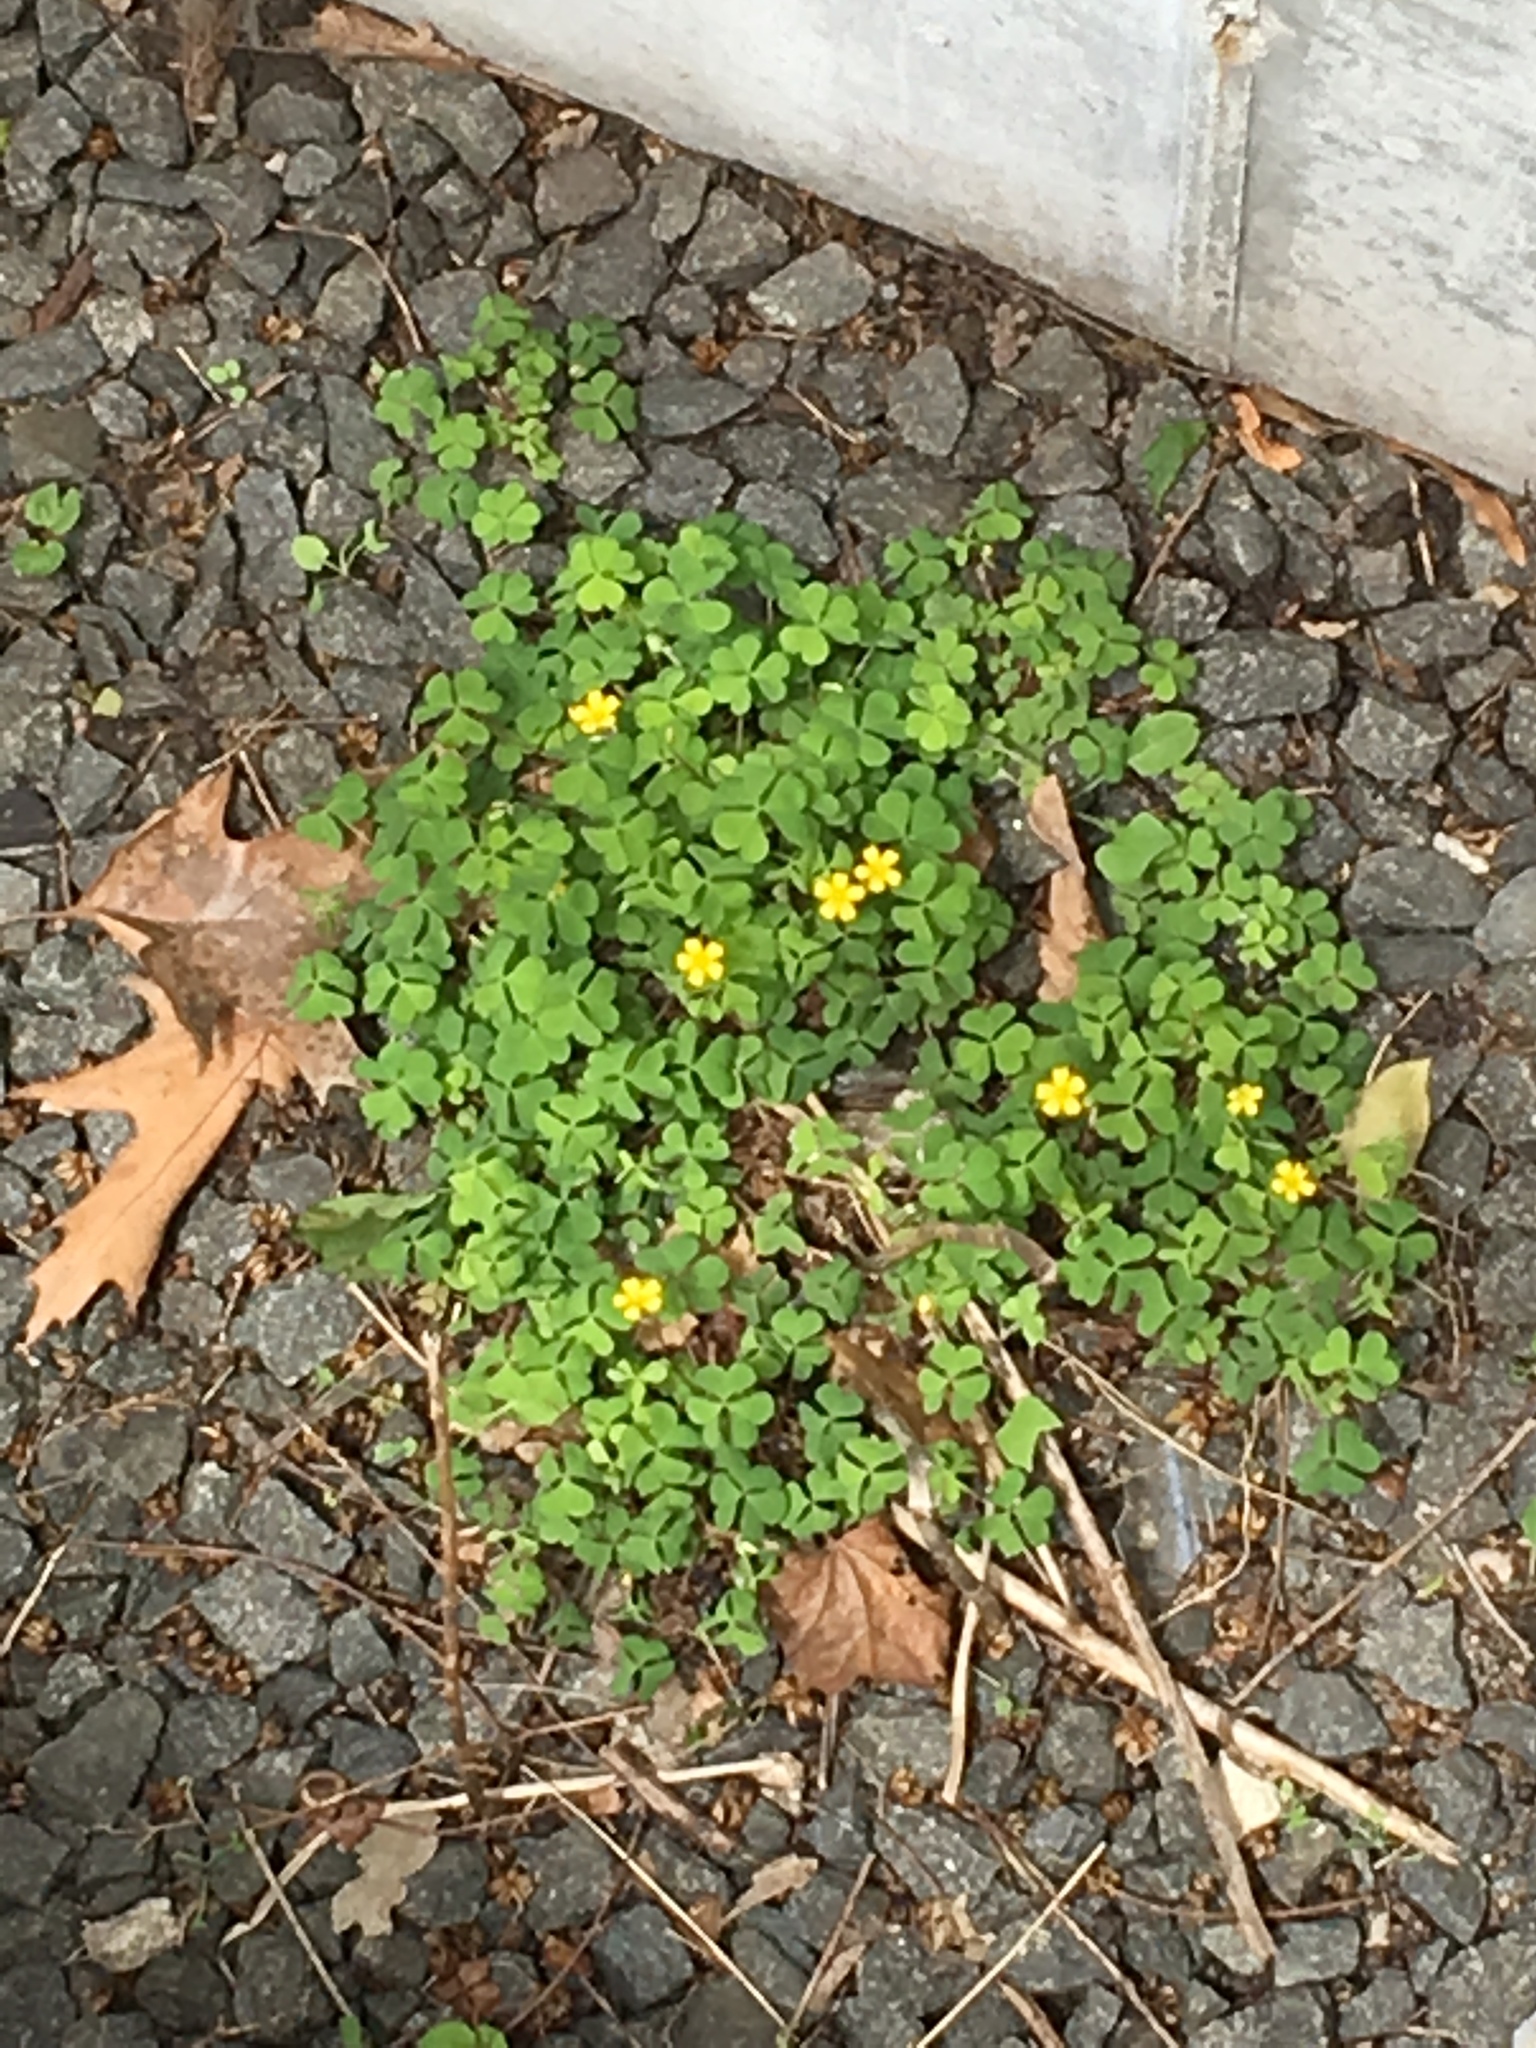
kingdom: Plantae
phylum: Tracheophyta
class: Magnoliopsida
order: Oxalidales
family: Oxalidaceae
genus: Oxalis
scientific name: Oxalis corniculata
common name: Procumbent yellow-sorrel
